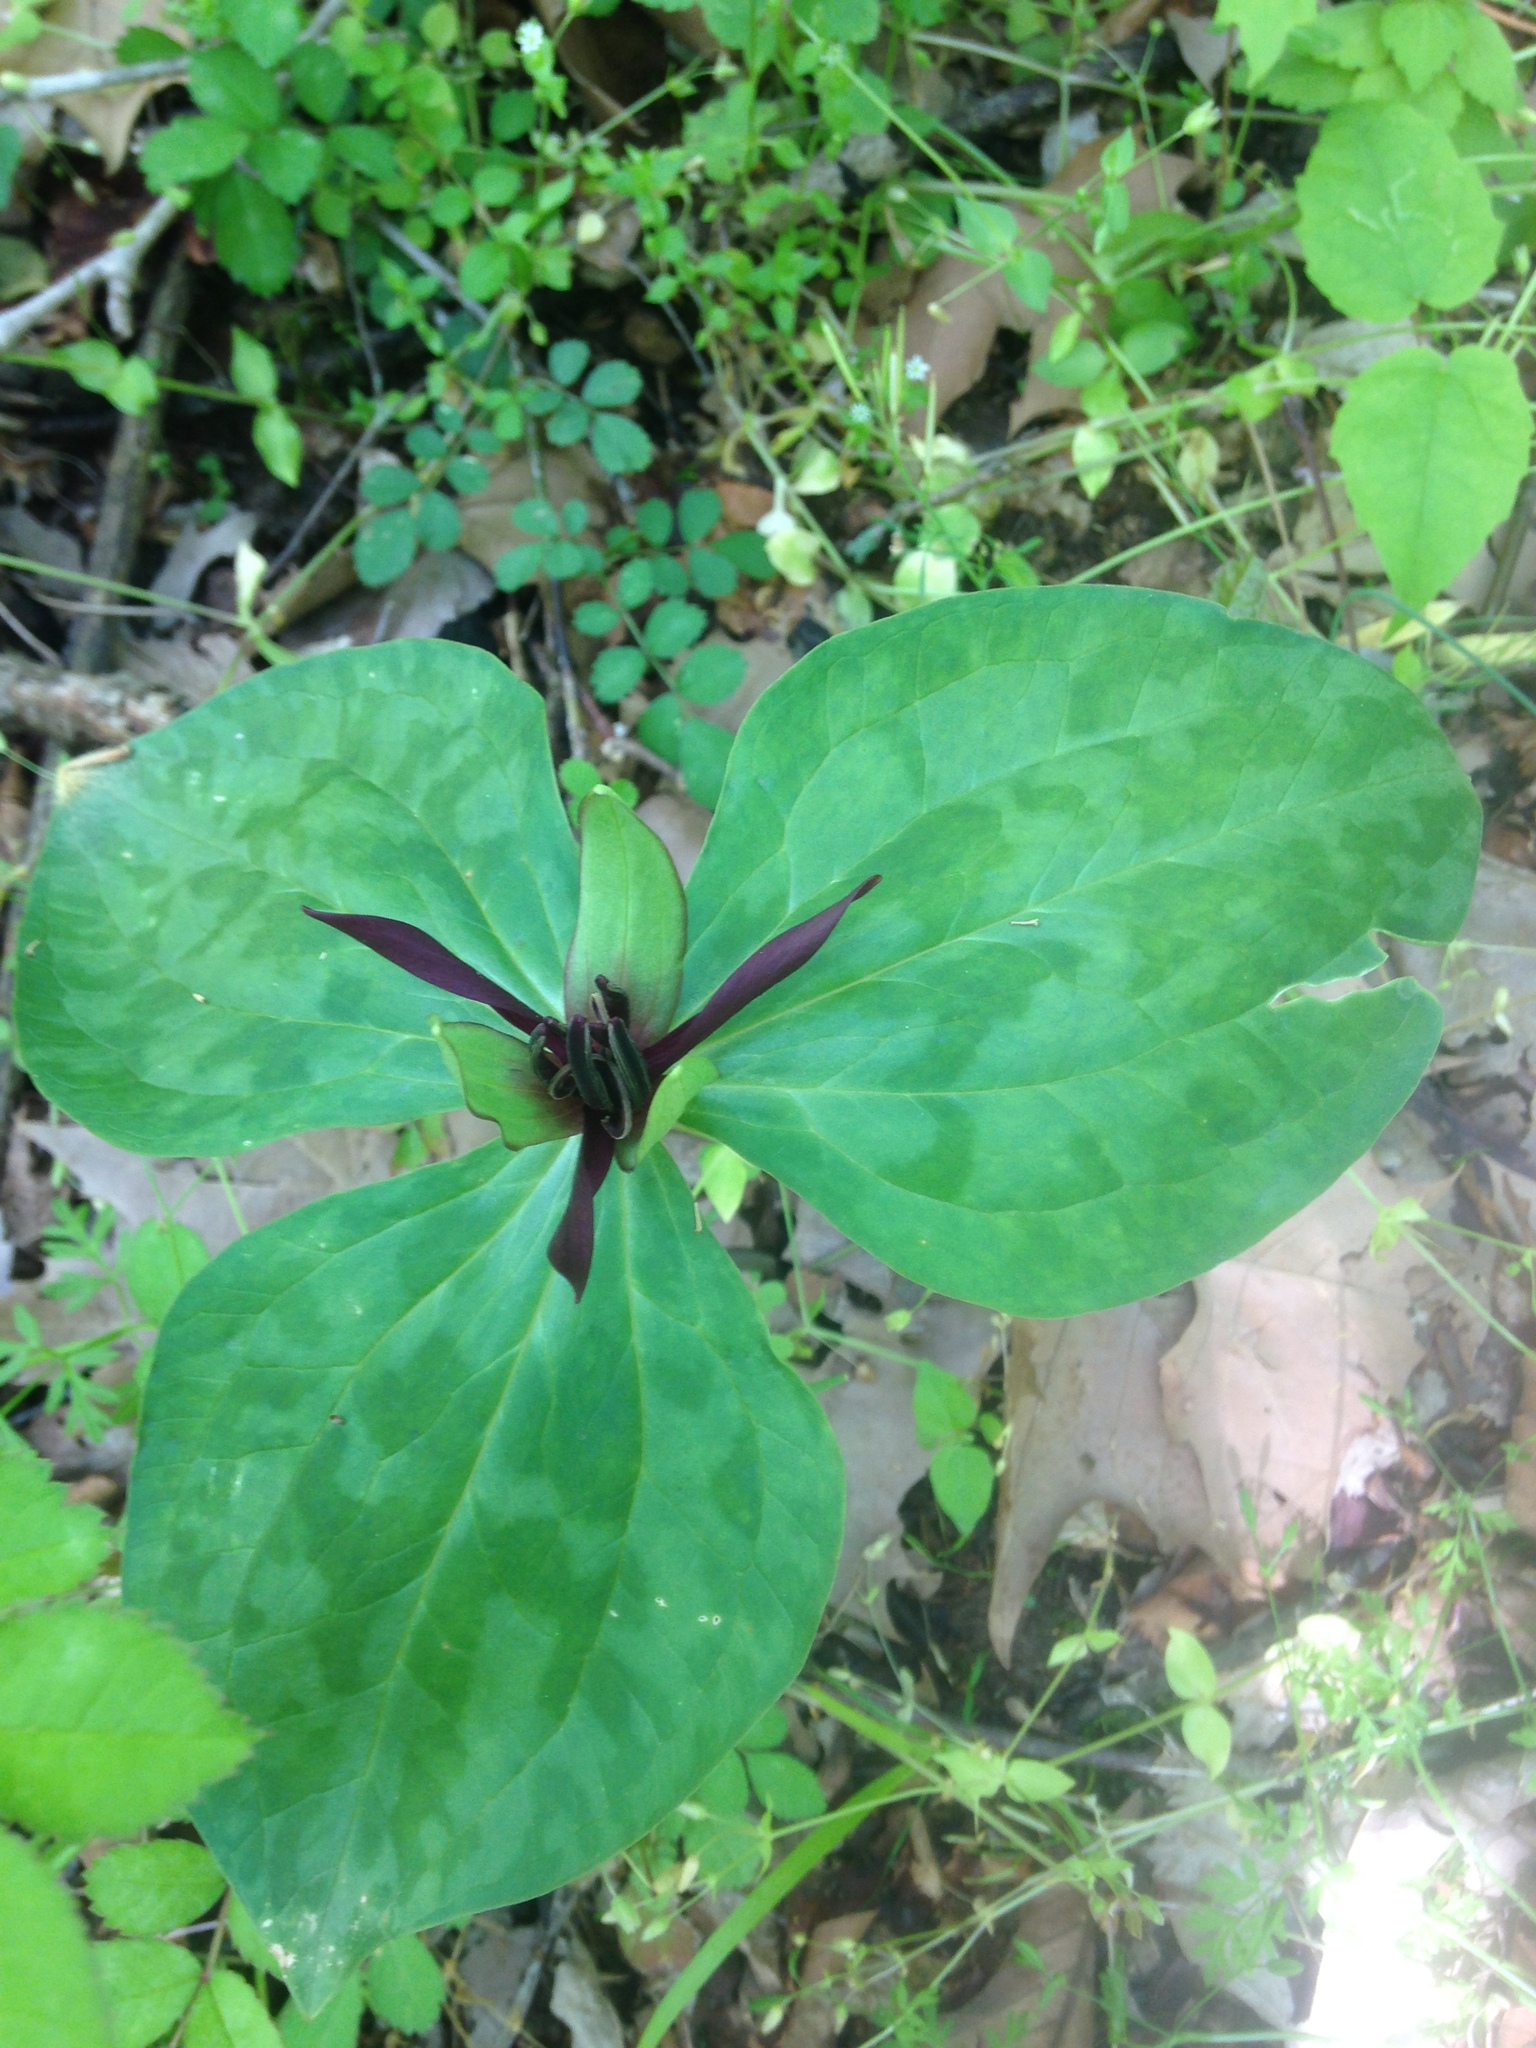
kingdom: Plantae
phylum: Tracheophyta
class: Liliopsida
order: Liliales
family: Melanthiaceae
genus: Trillium
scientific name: Trillium stamineum
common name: Blue ridge wakerobin
